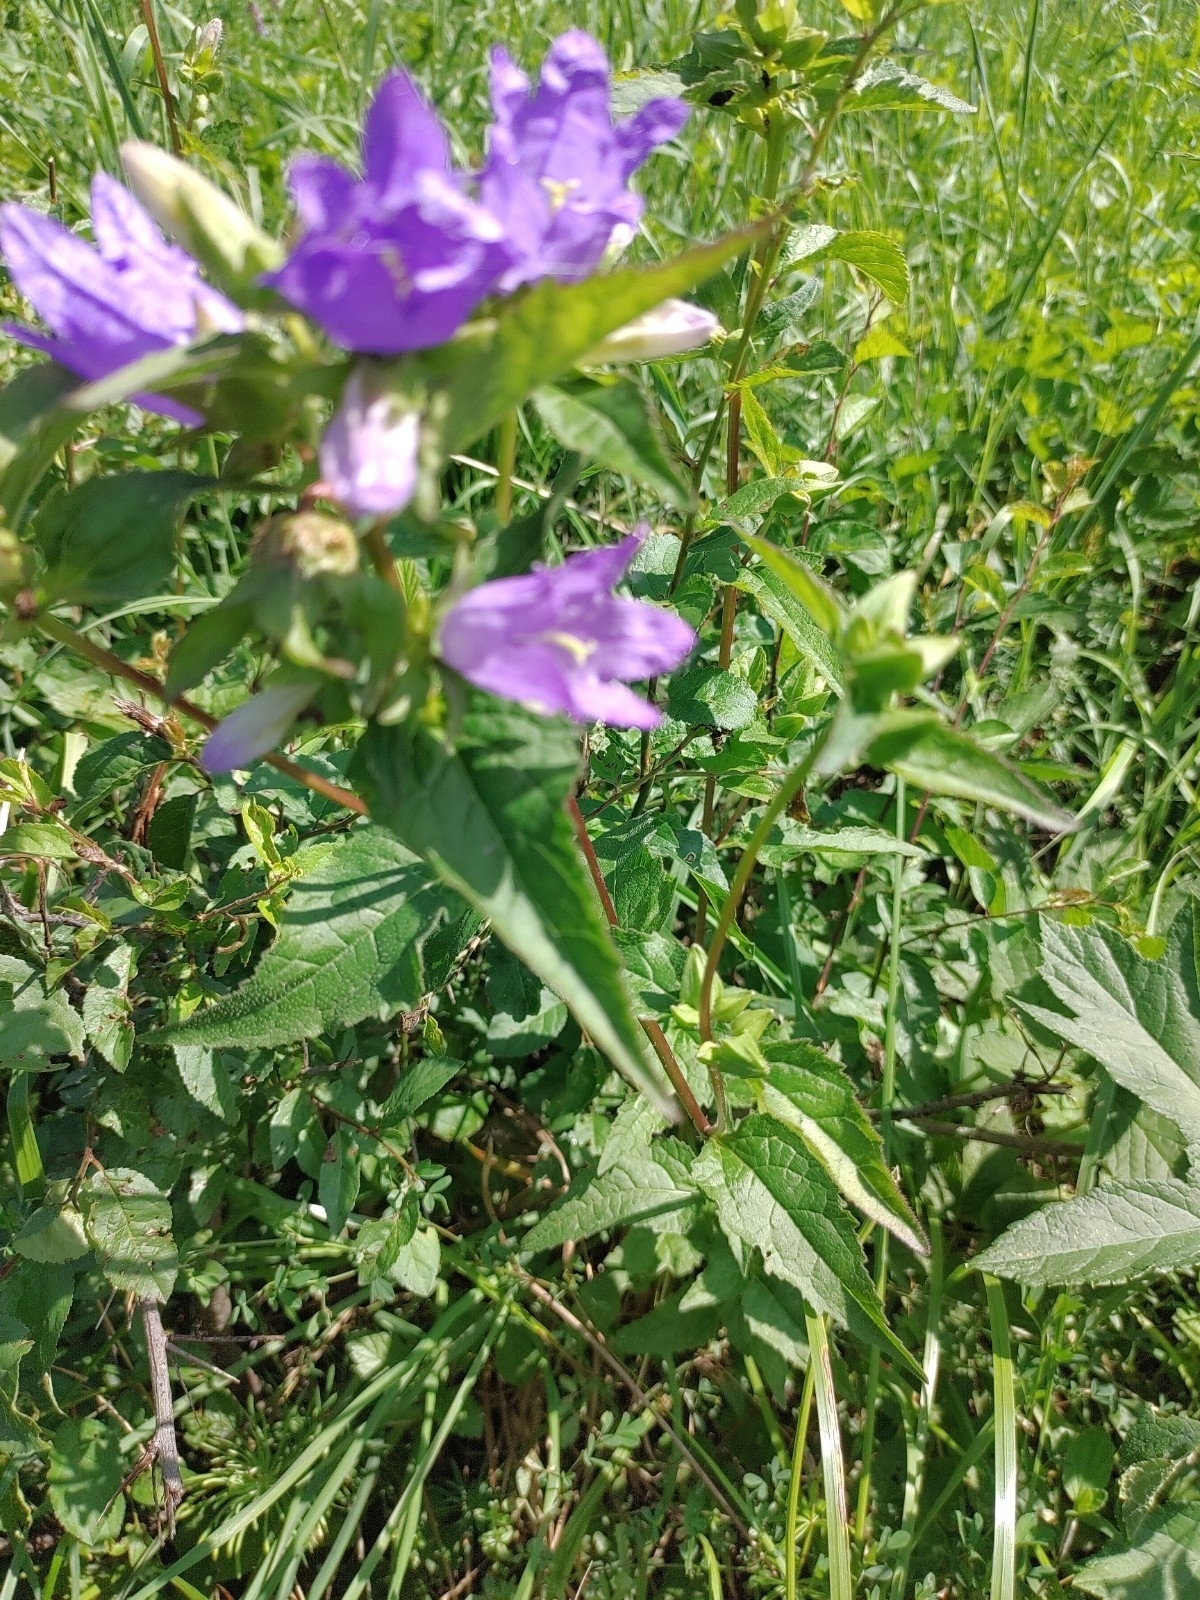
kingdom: Plantae
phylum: Tracheophyta
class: Magnoliopsida
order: Asterales
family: Campanulaceae
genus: Campanula
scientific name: Campanula trachelium
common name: Nettle-leaved bellflower
